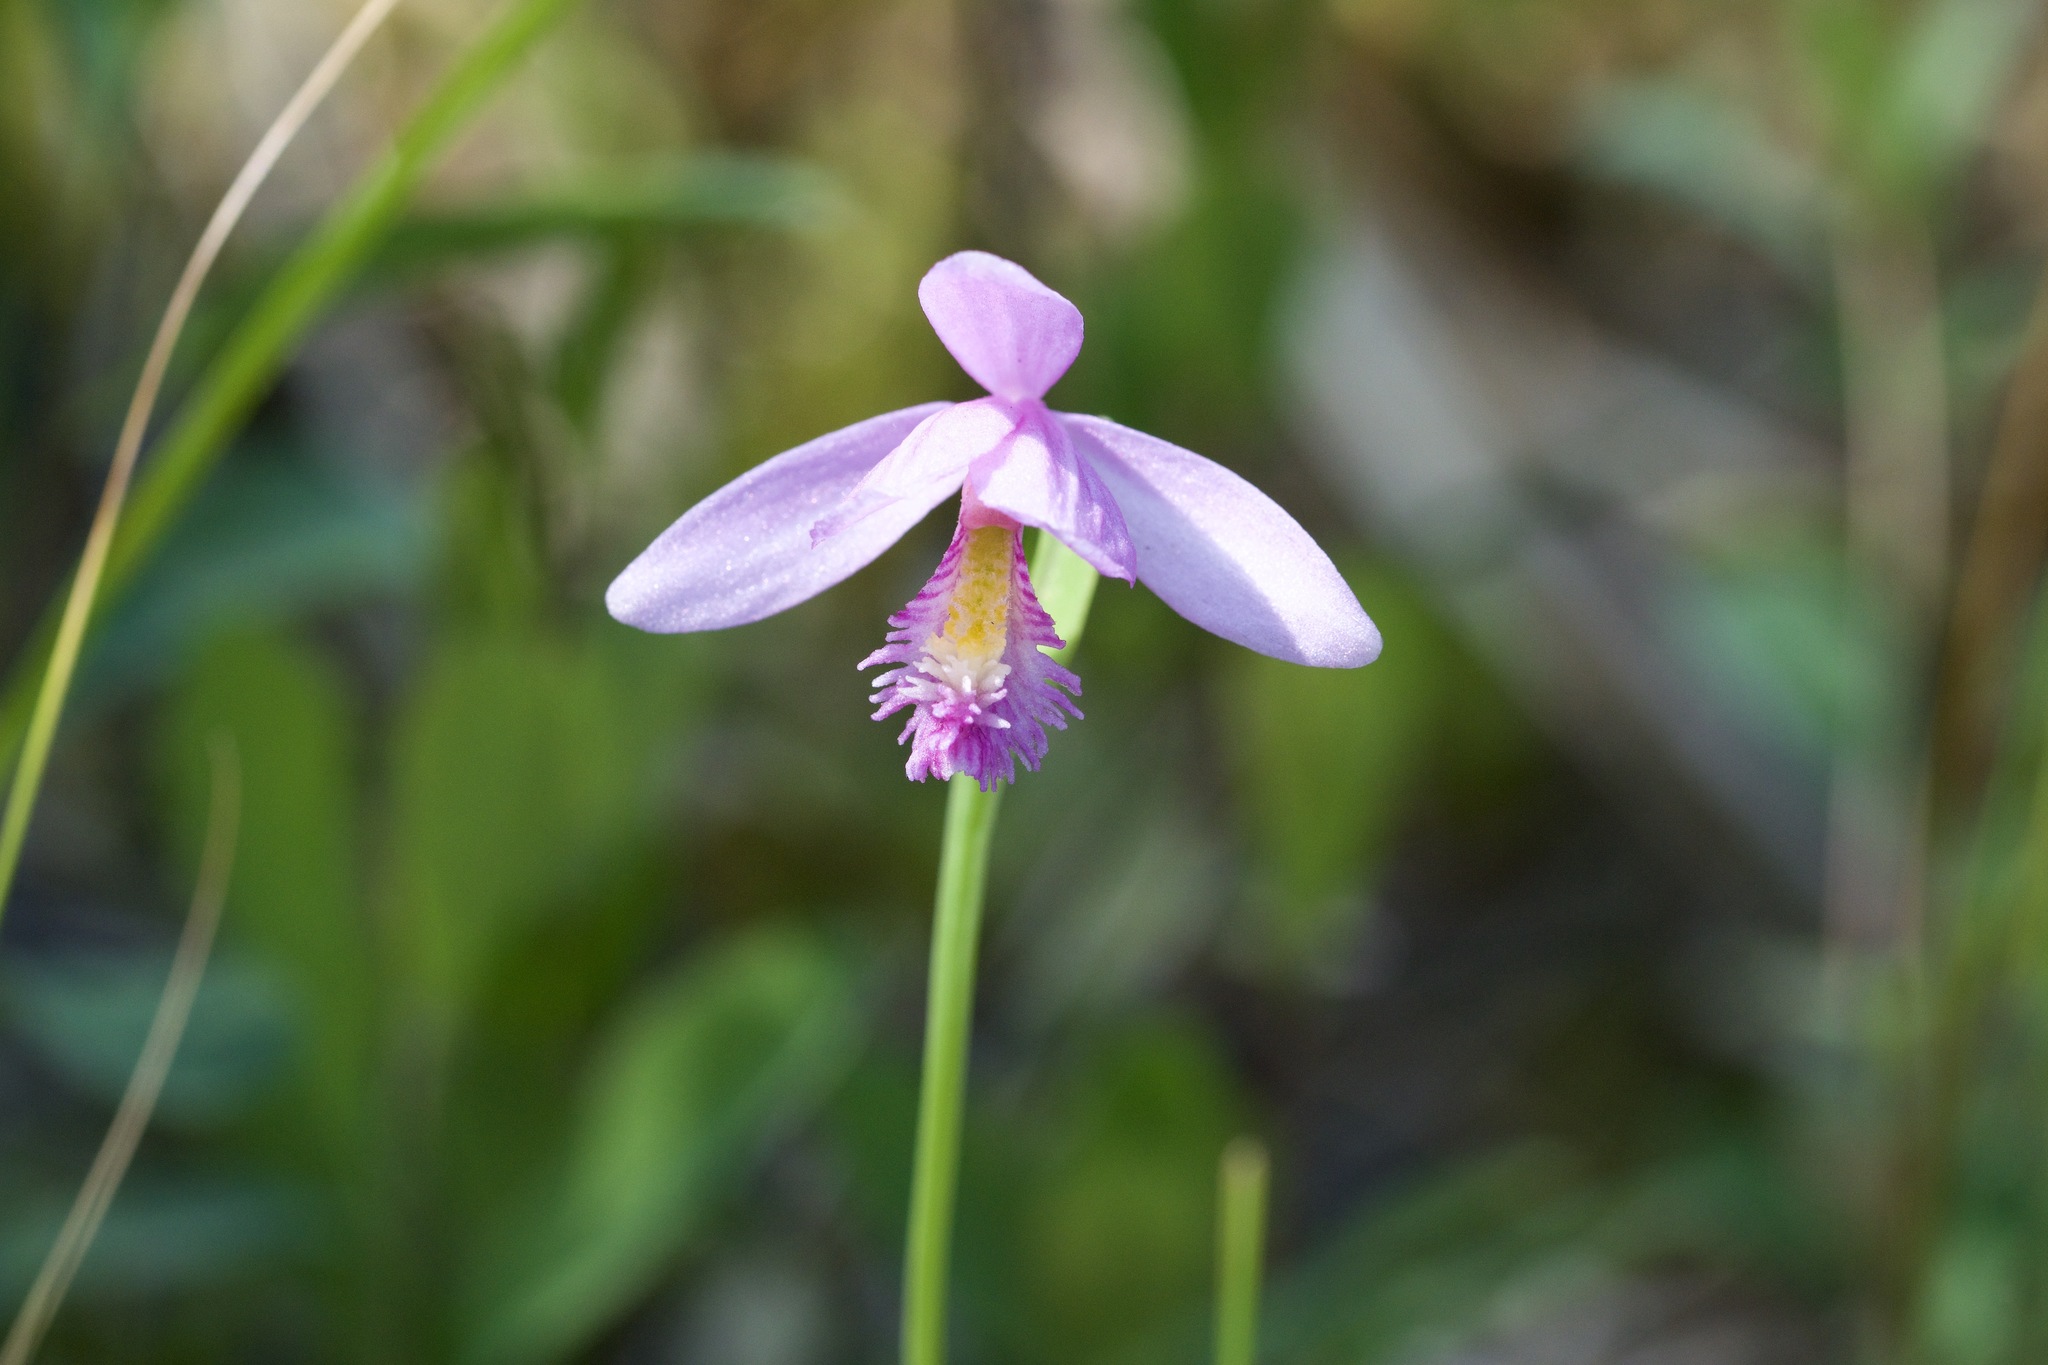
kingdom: Plantae
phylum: Tracheophyta
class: Liliopsida
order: Asparagales
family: Orchidaceae
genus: Pogonia
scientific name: Pogonia ophioglossoides
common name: Rose pogonia
